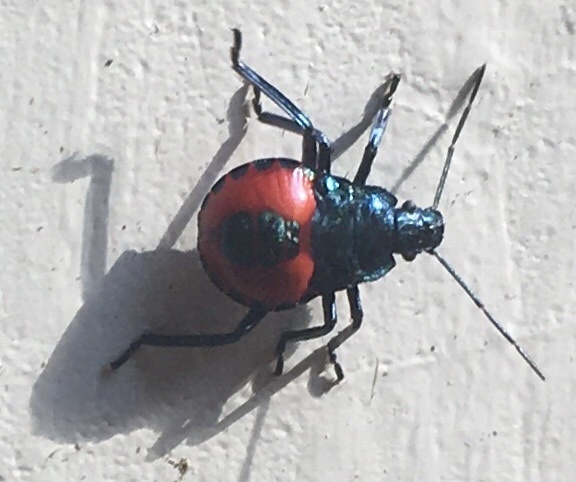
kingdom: Animalia
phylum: Arthropoda
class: Insecta
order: Hemiptera
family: Pentatomidae
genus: Euthyrhynchus
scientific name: Euthyrhynchus floridanus
